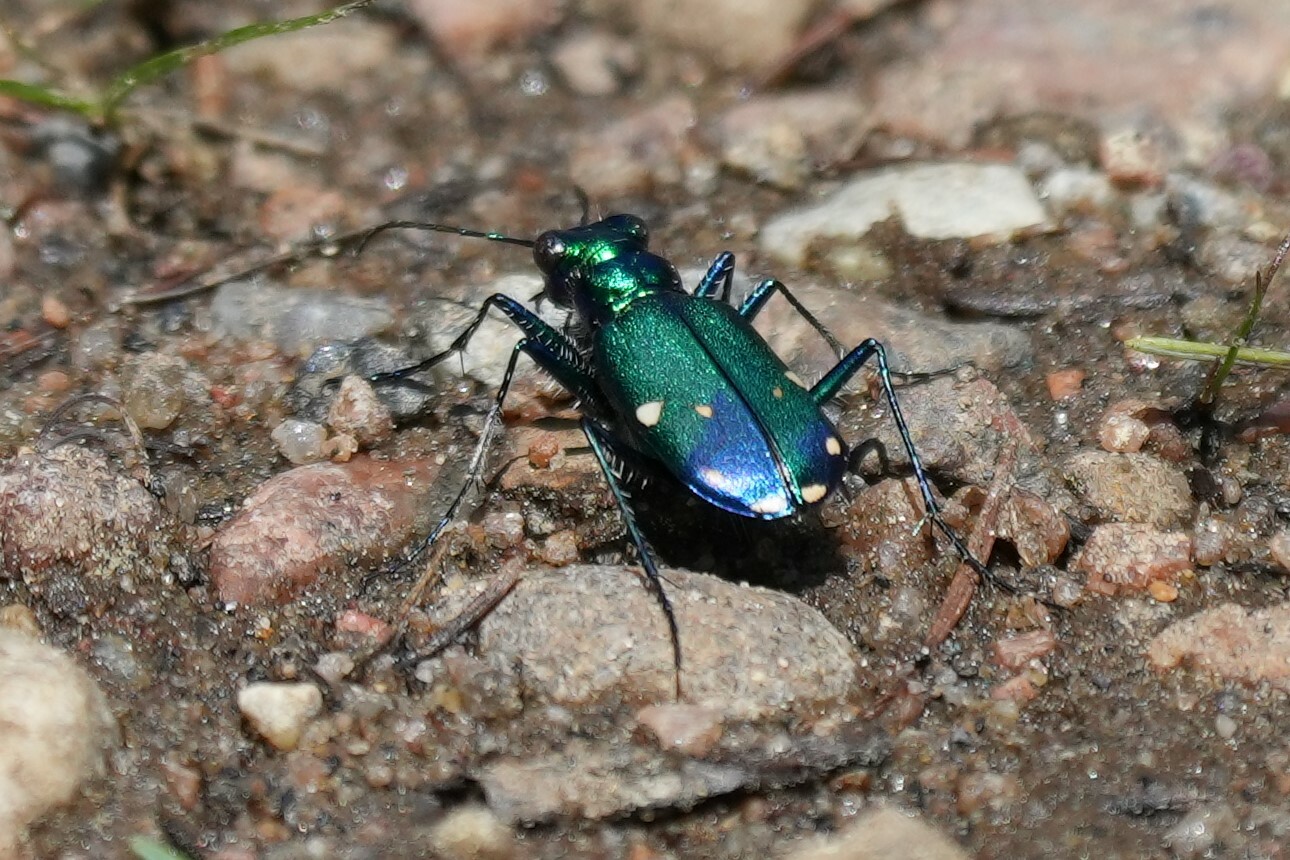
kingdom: Animalia
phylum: Arthropoda
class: Insecta
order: Coleoptera
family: Carabidae
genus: Cicindela
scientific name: Cicindela sexguttata
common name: Six-spotted tiger beetle
